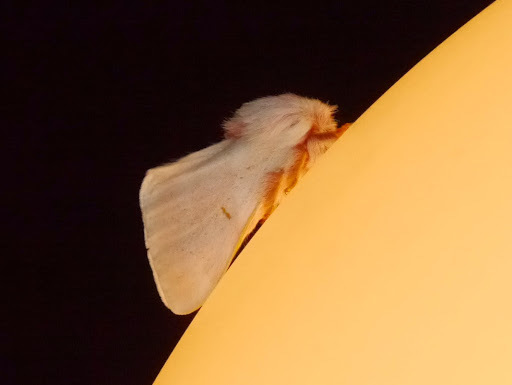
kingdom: Animalia
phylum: Arthropoda
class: Insecta
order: Lepidoptera
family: Saturniidae
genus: Hemileuca
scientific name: Hemileuca hualapai
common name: Hualapai buckmoth
